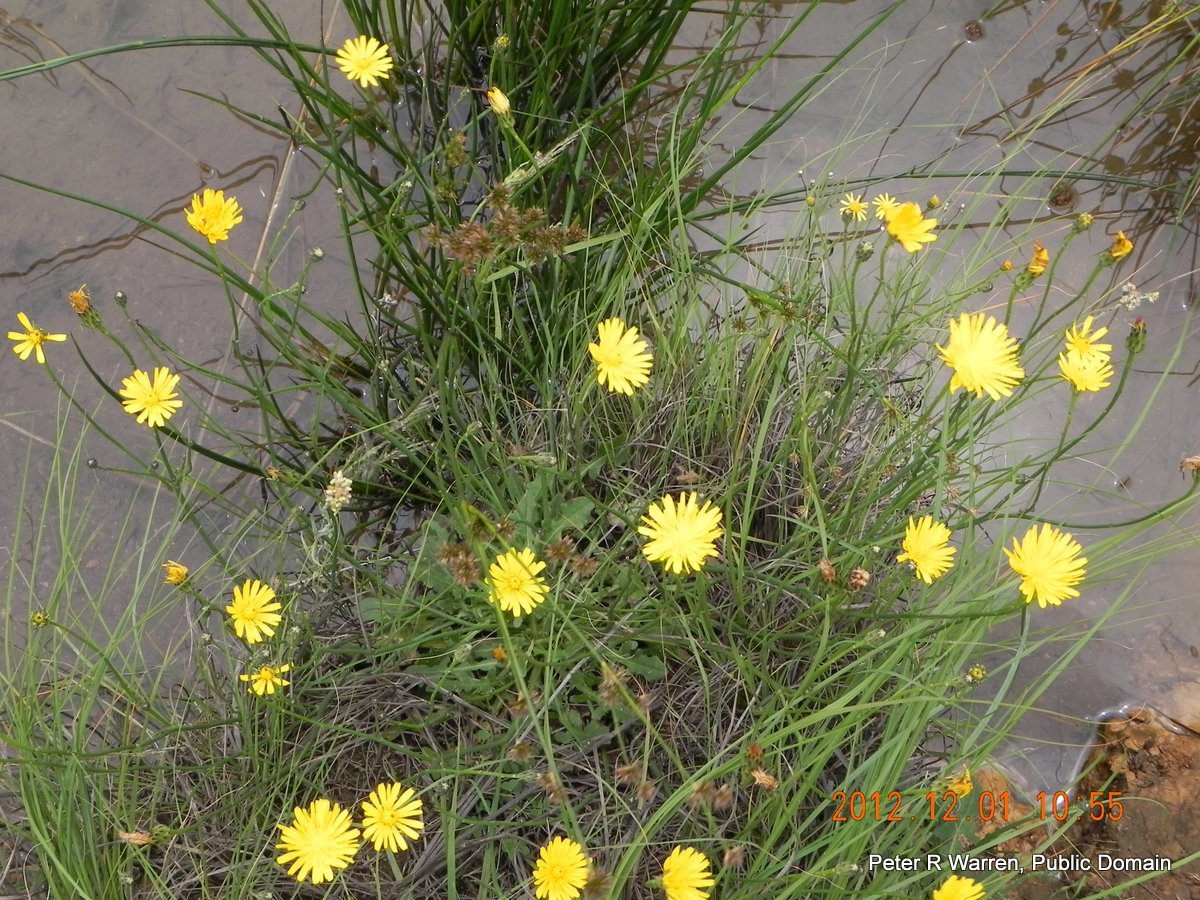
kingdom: Plantae
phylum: Tracheophyta
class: Magnoliopsida
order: Asterales
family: Asteraceae
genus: Hypochaeris
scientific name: Hypochaeris radicata
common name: Flatweed
